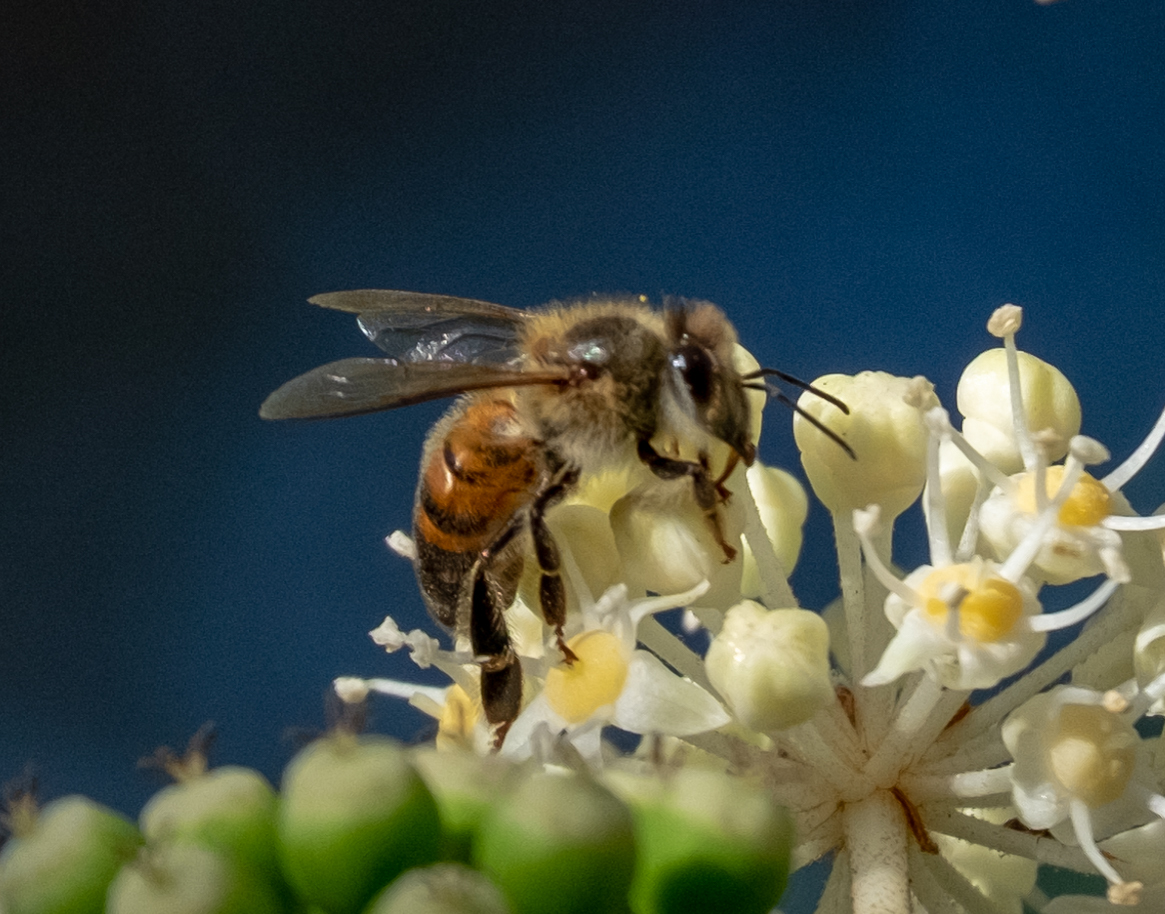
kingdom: Animalia
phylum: Arthropoda
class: Insecta
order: Hymenoptera
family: Apidae
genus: Apis
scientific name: Apis mellifera
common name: Honey bee
